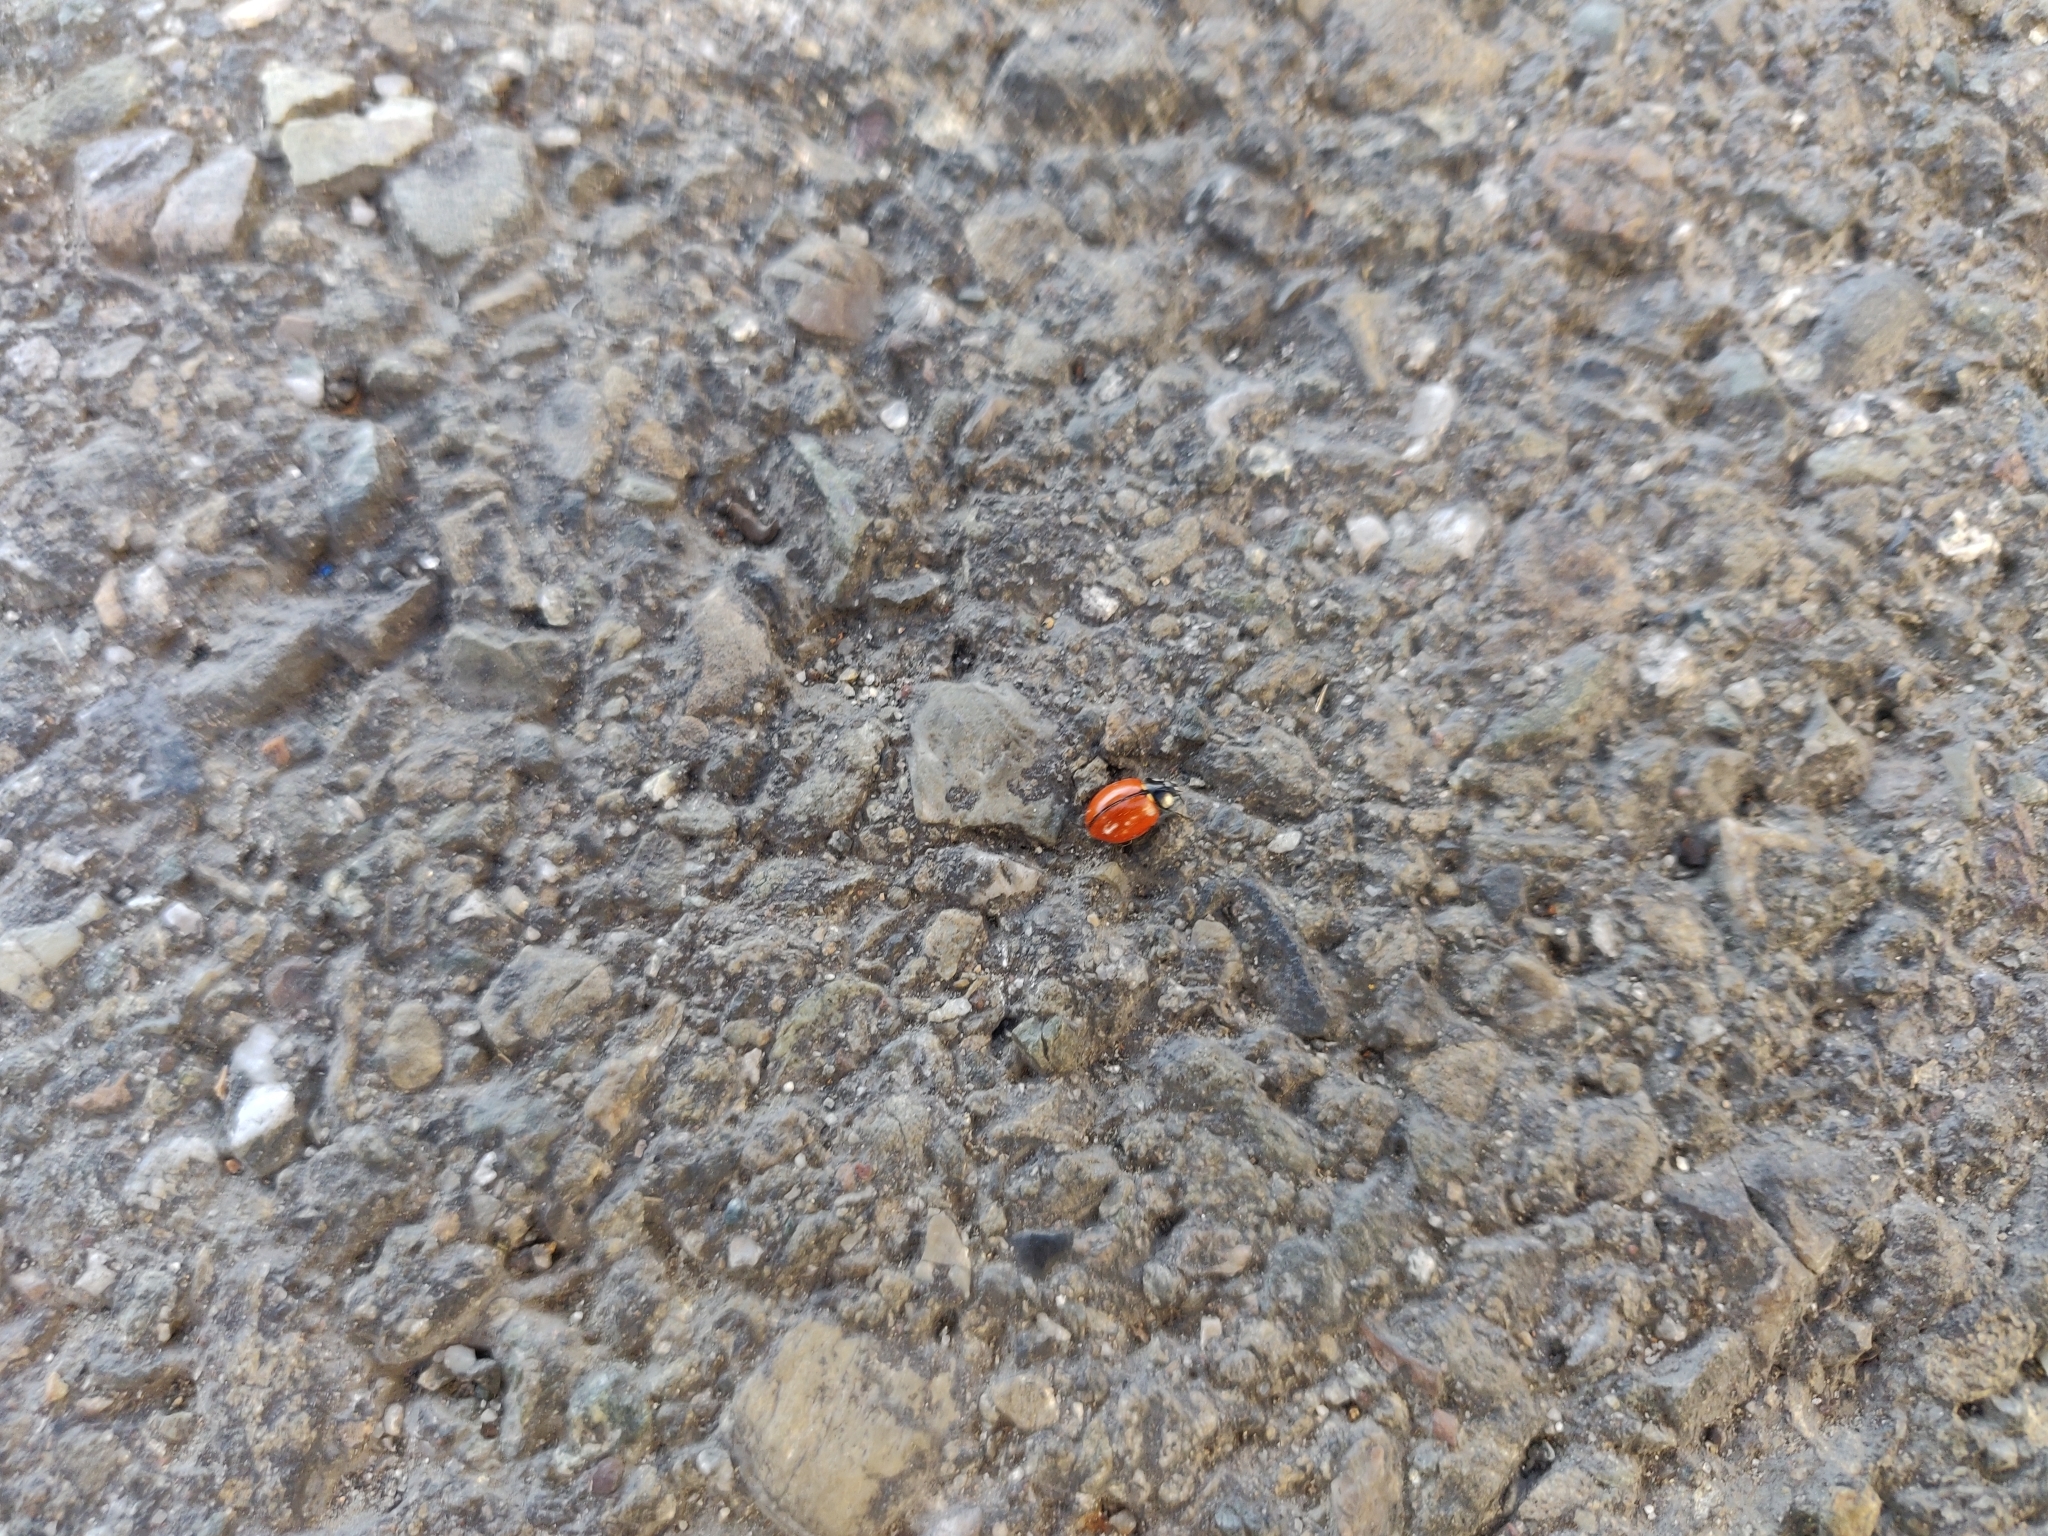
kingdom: Animalia
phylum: Arthropoda
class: Insecta
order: Coleoptera
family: Coccinellidae
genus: Coccinella
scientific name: Coccinella californica
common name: Lady beetle
